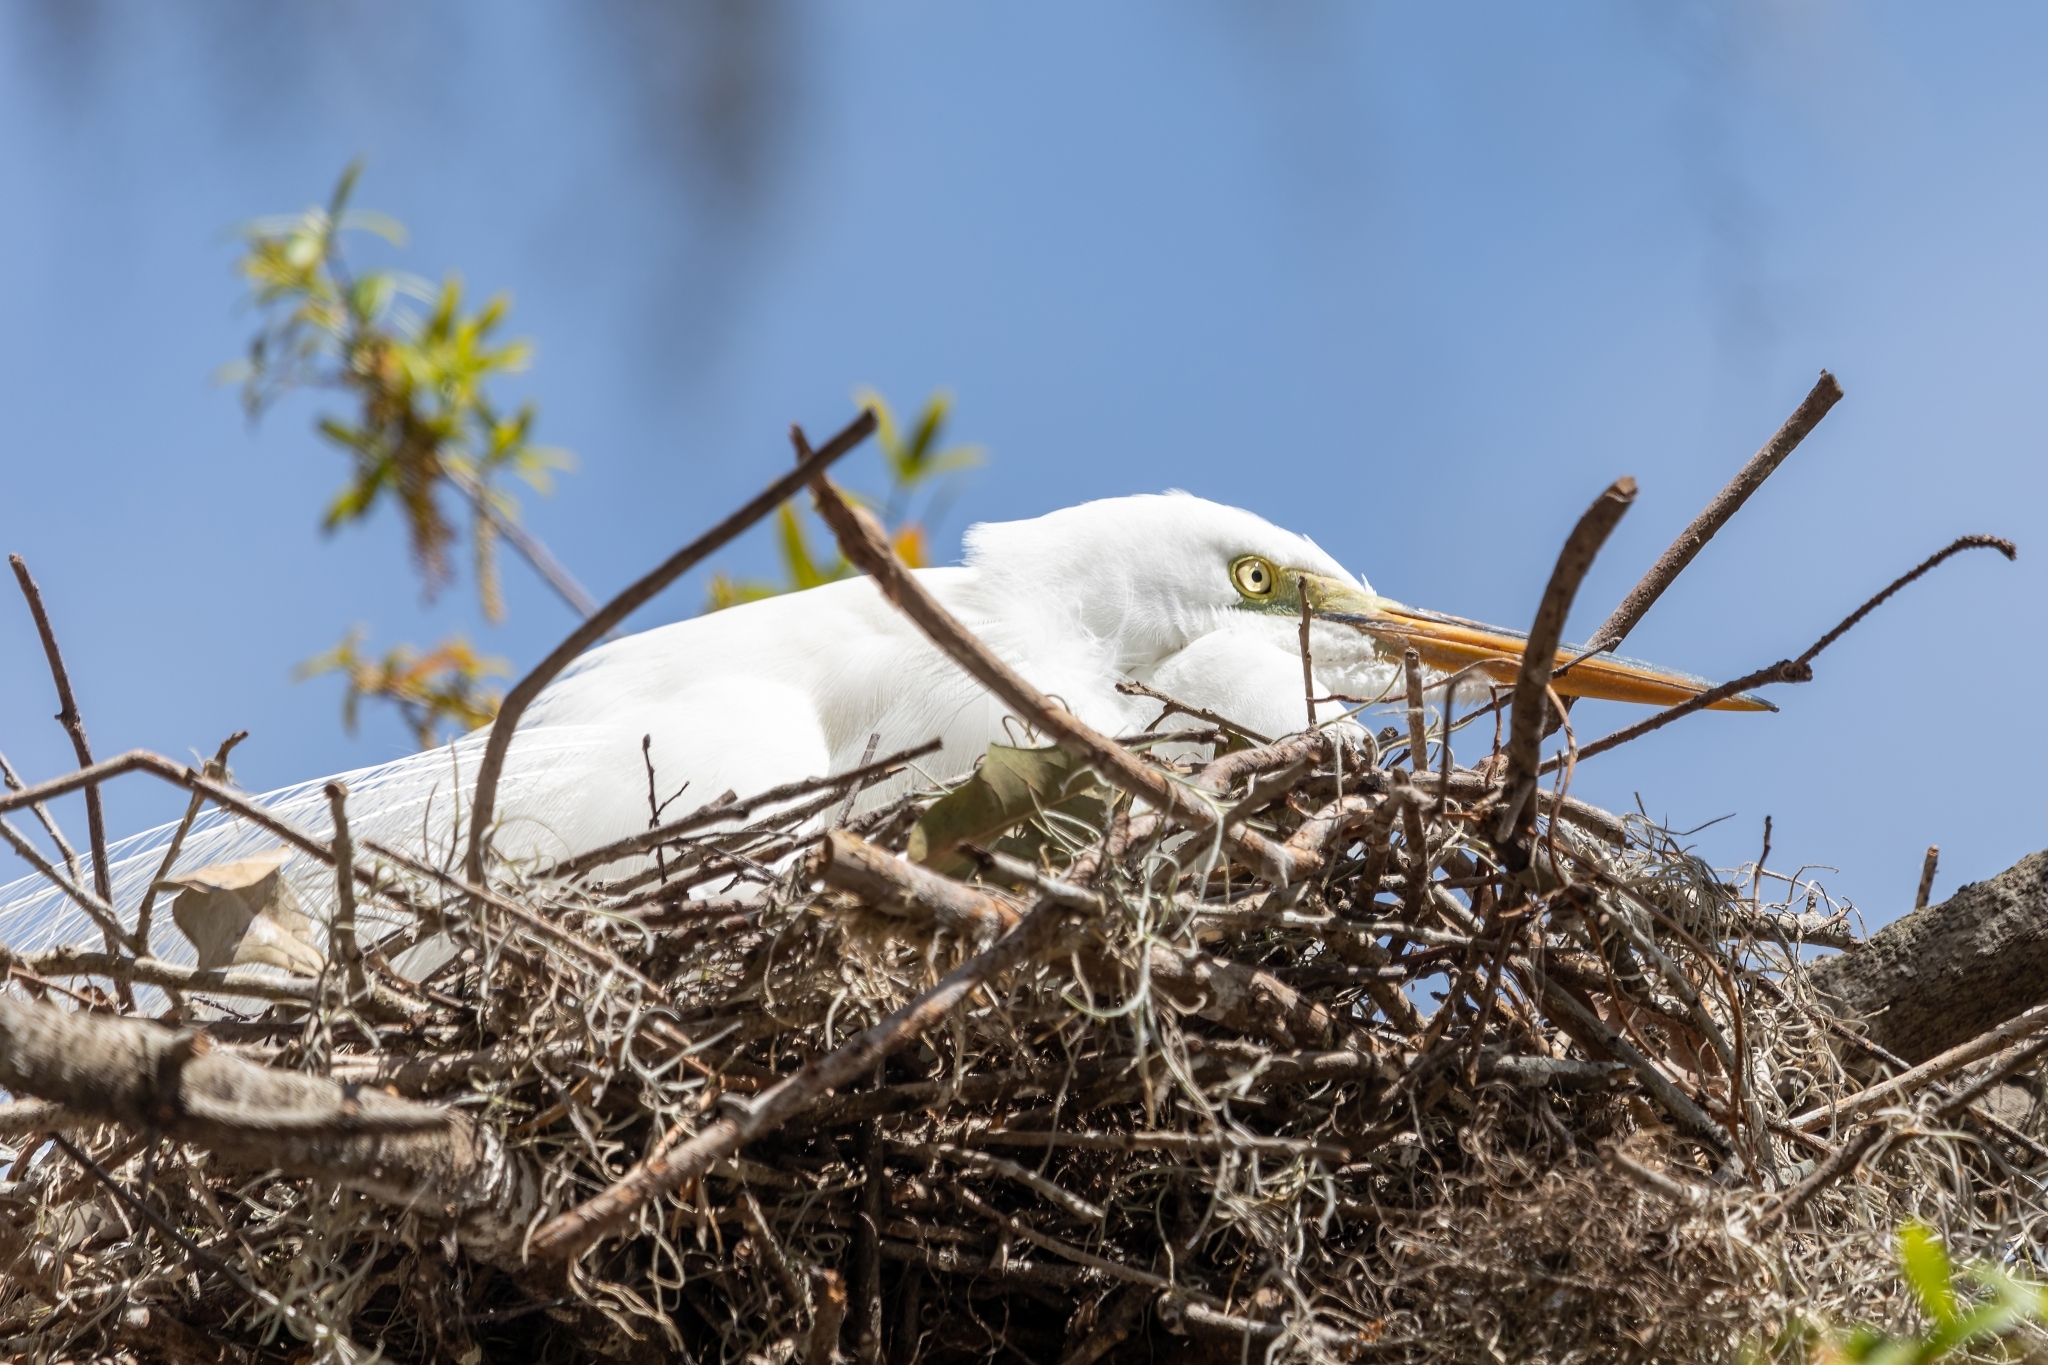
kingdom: Animalia
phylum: Chordata
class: Aves
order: Pelecaniformes
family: Ardeidae
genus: Ardea
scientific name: Ardea alba
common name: Great egret
